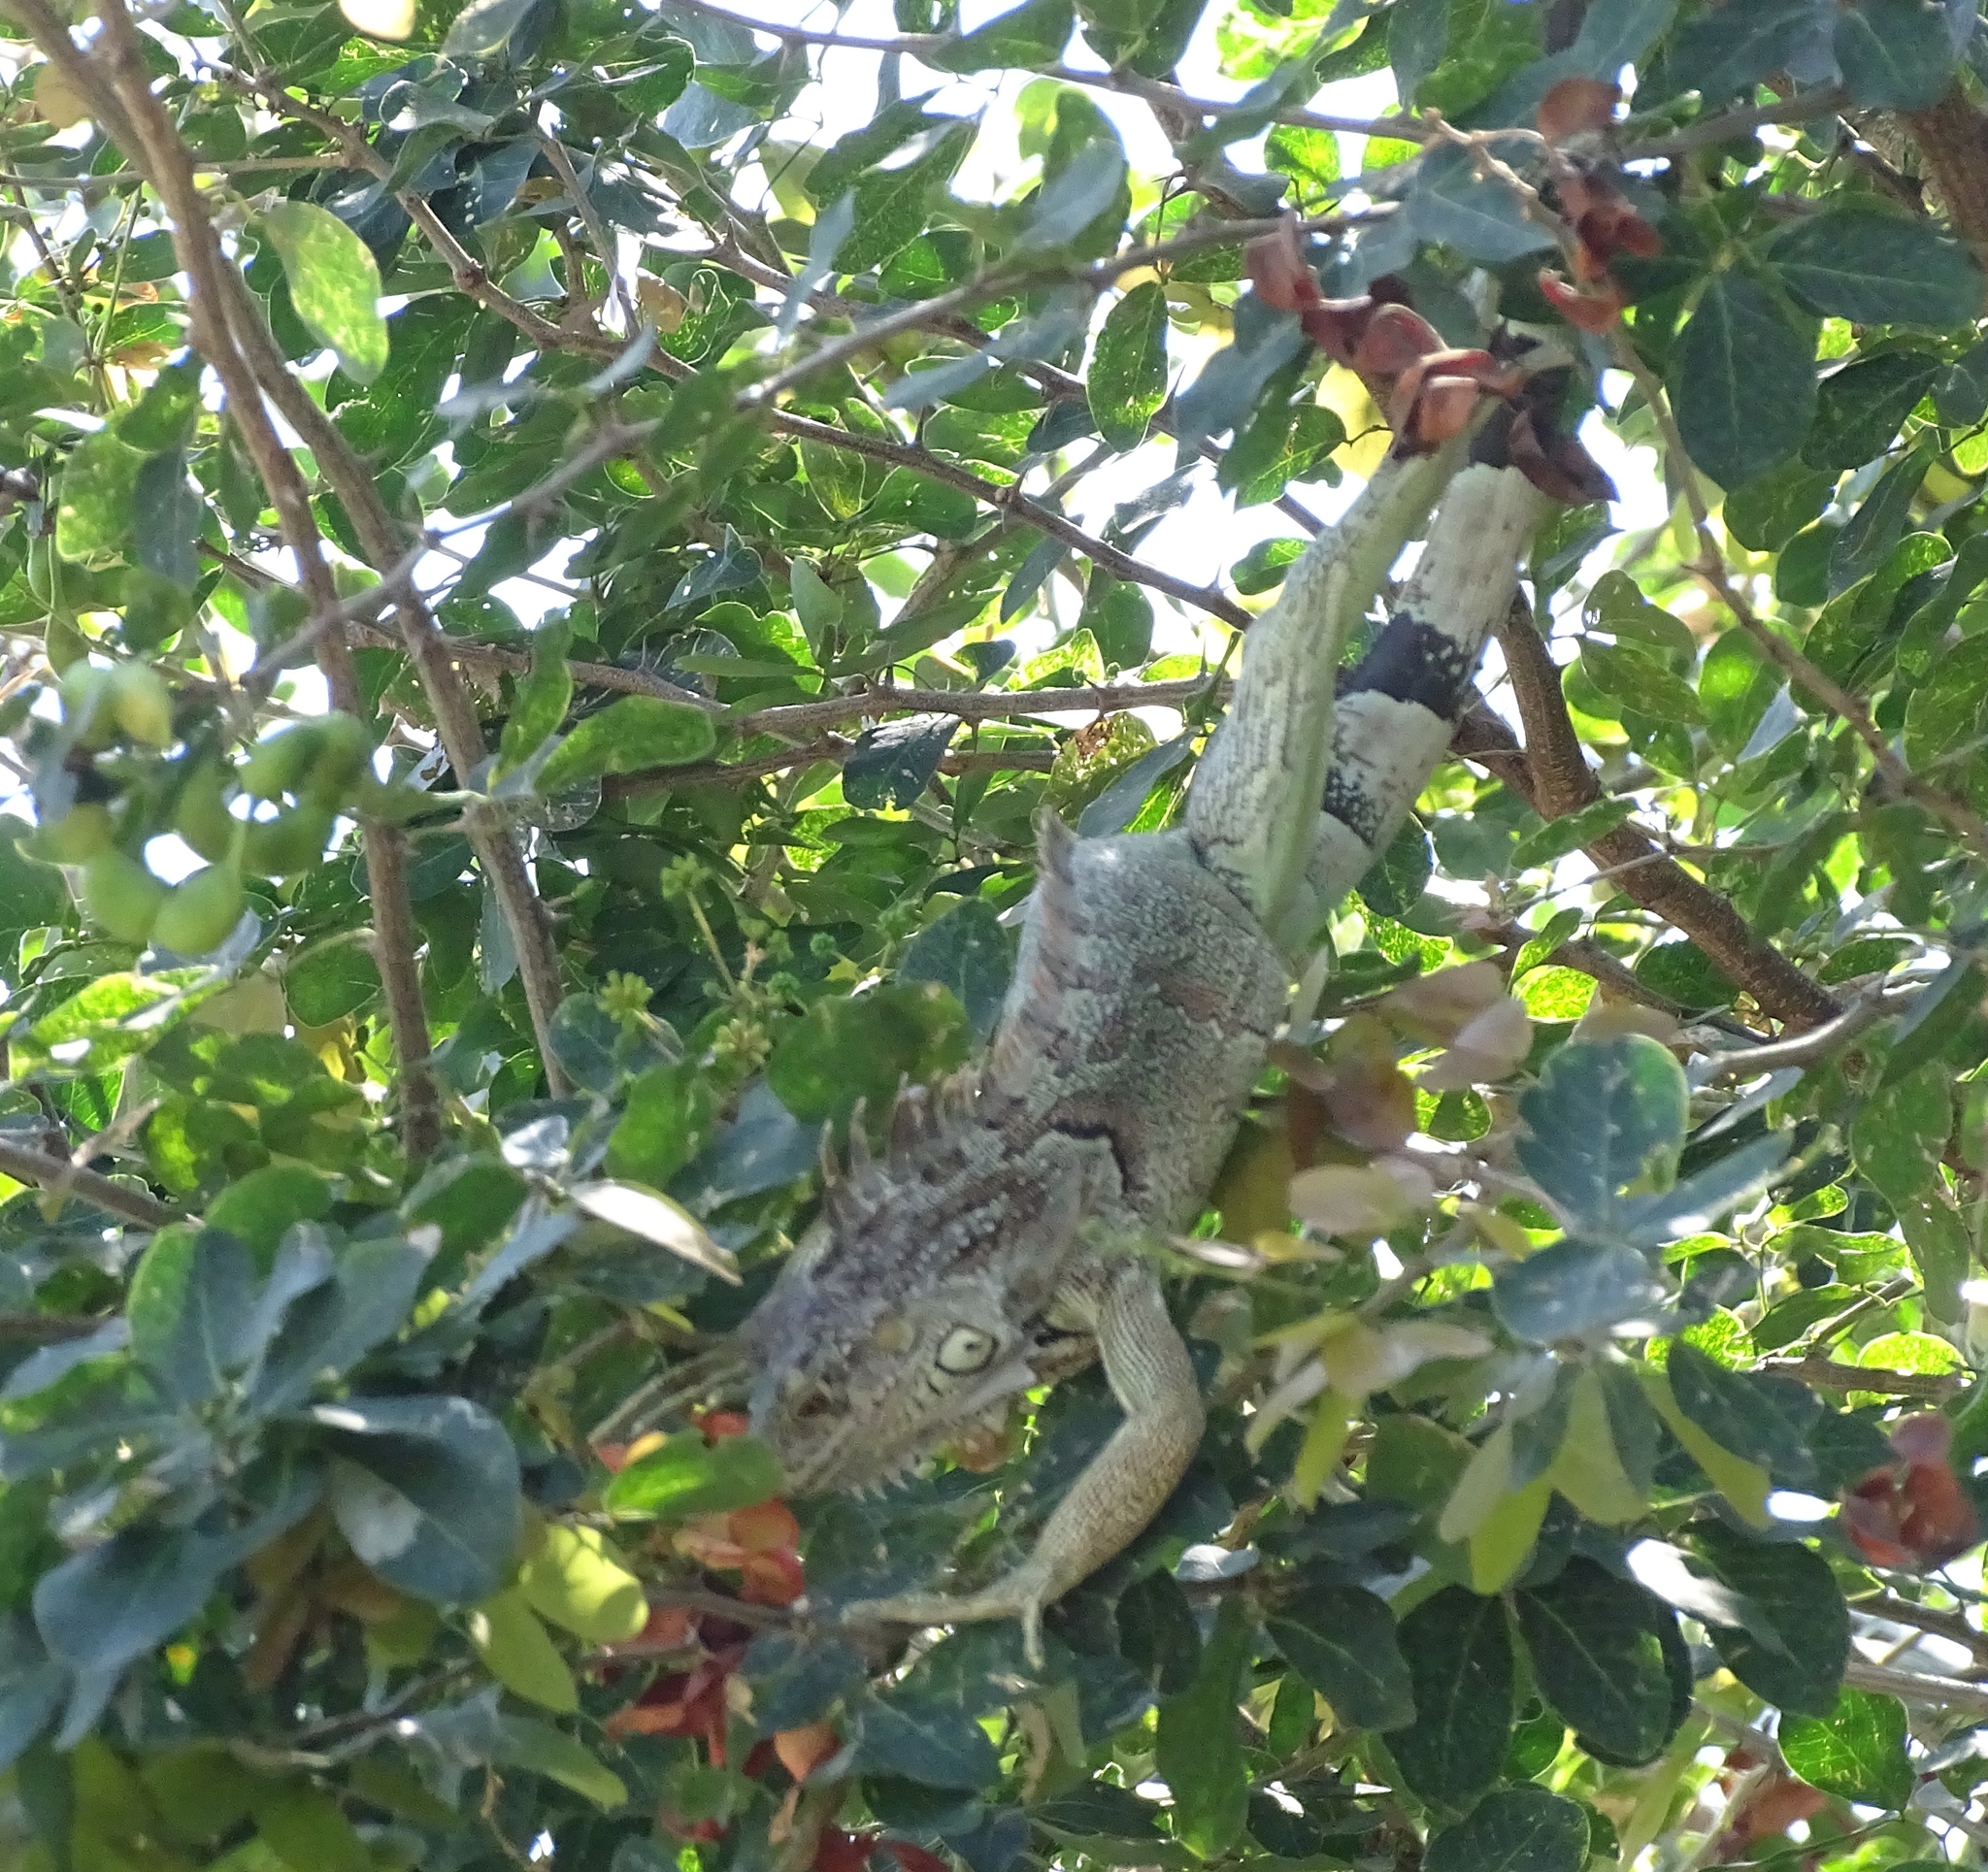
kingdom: Animalia
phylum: Chordata
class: Squamata
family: Iguanidae
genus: Iguana
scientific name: Iguana iguana
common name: Green iguana
